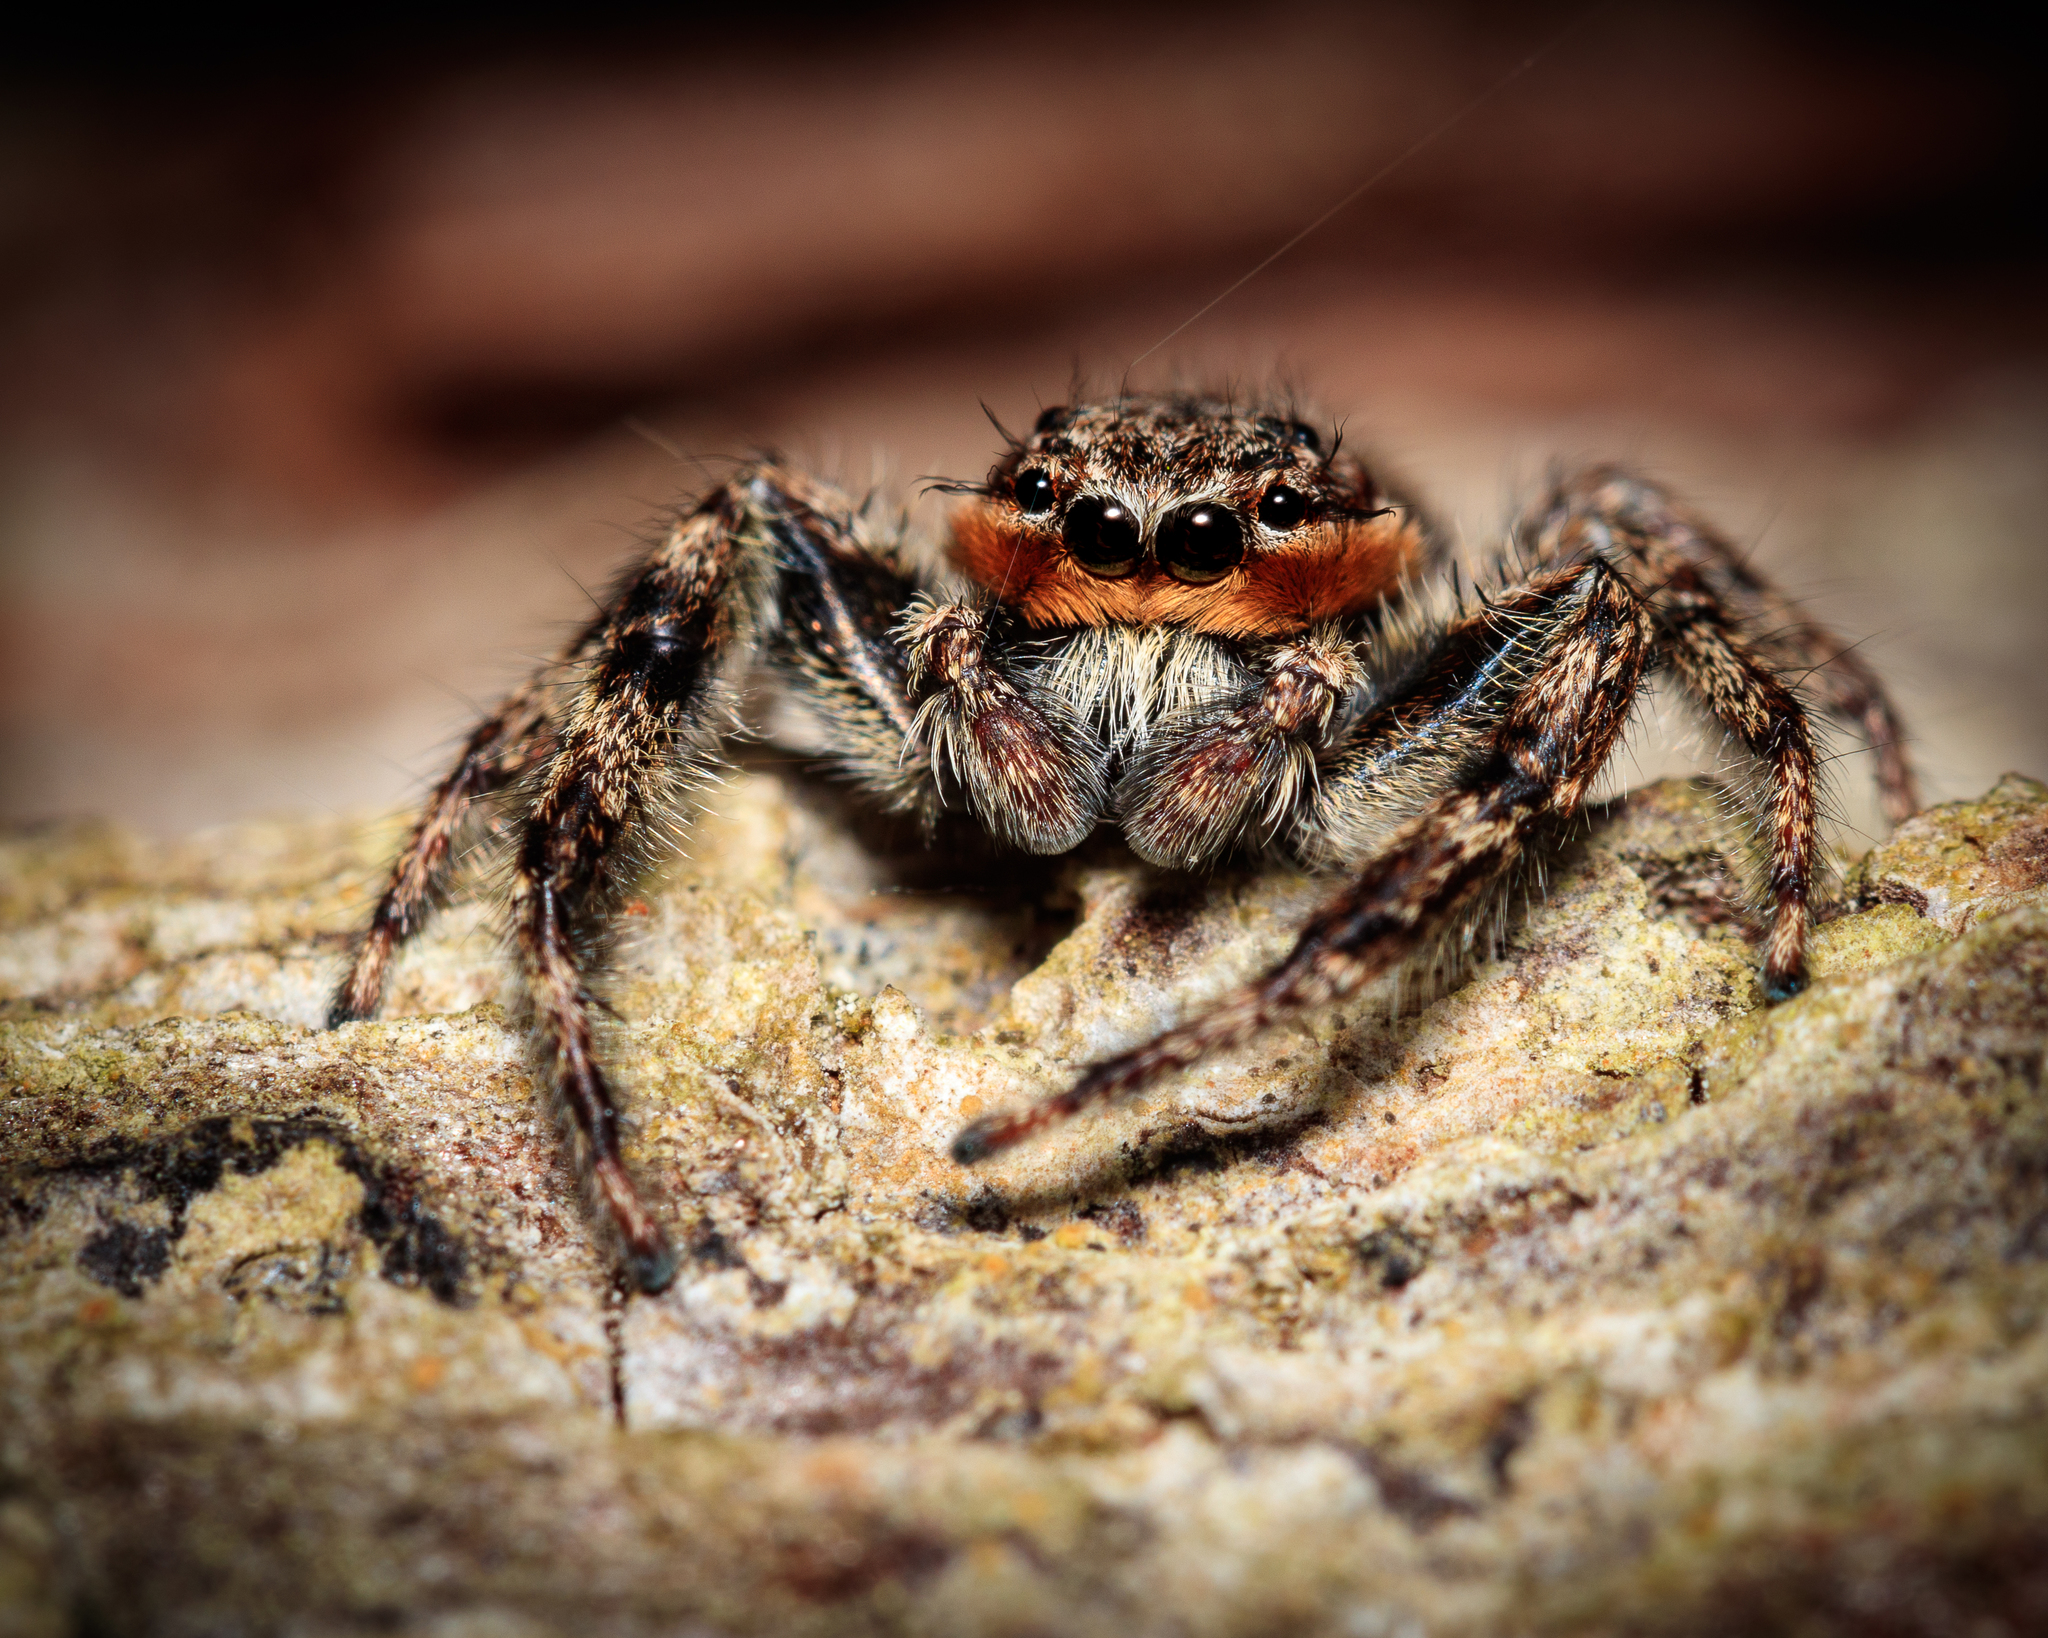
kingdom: Animalia
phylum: Arthropoda
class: Arachnida
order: Araneae
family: Salticidae
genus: Platycryptus
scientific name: Platycryptus undatus
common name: Tan jumping spider
